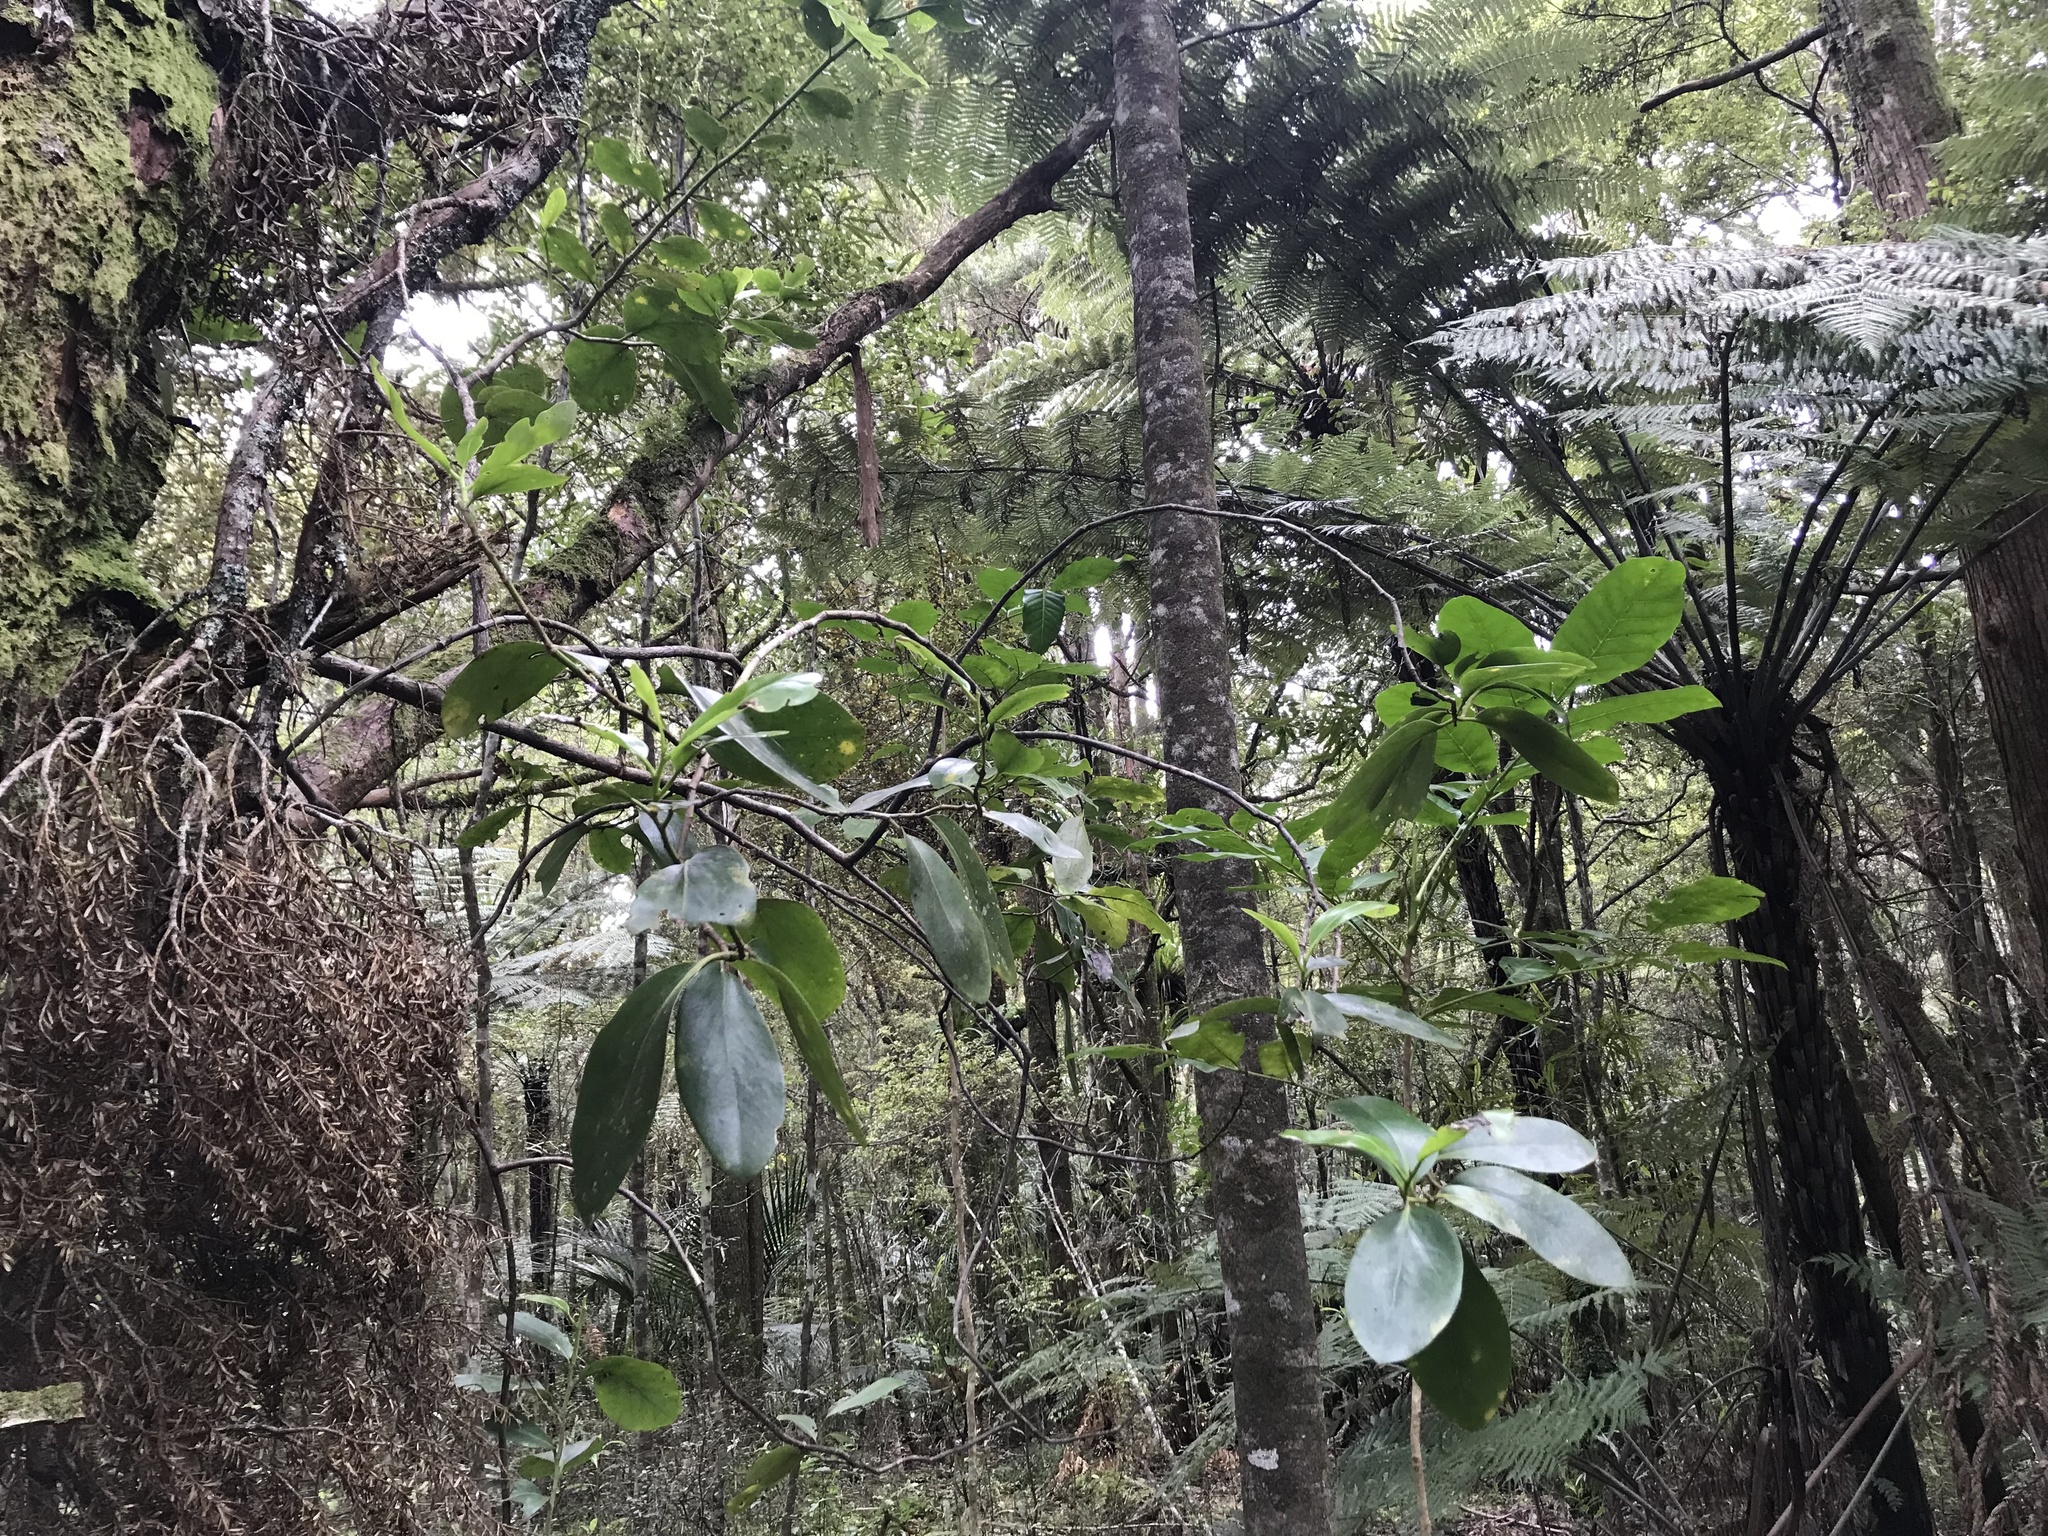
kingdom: Plantae
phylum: Tracheophyta
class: Magnoliopsida
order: Apiales
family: Griseliniaceae
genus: Griselinia
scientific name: Griselinia lucida
